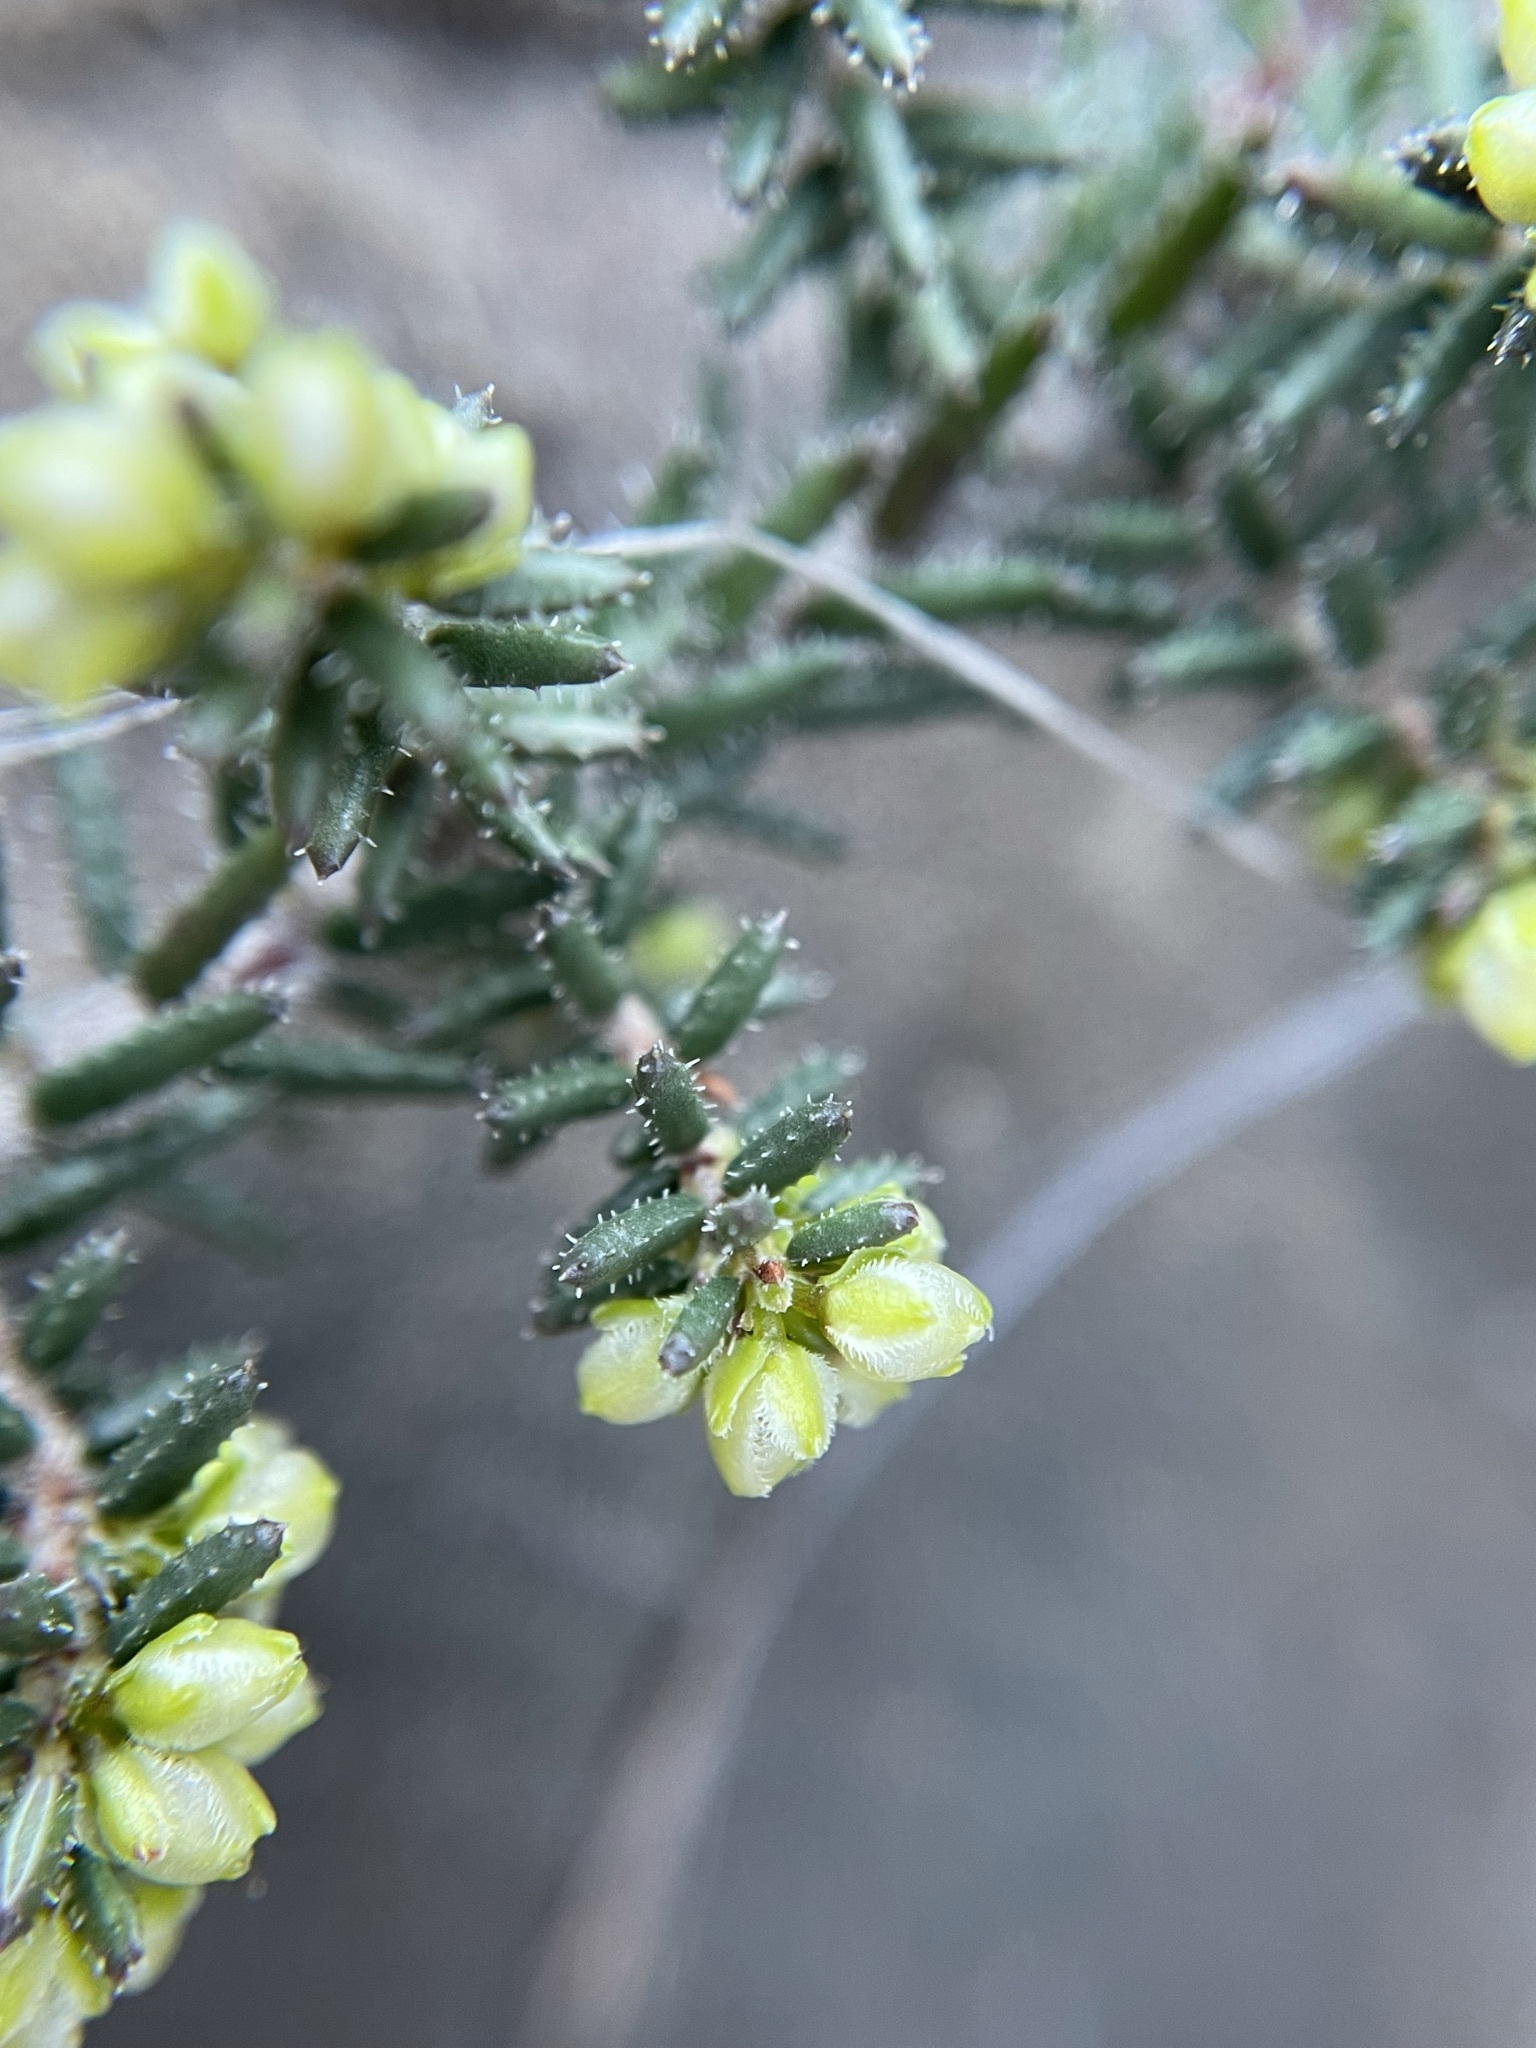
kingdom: Plantae
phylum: Tracheophyta
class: Magnoliopsida
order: Ericales
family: Ericaceae
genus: Erica
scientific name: Erica totta
